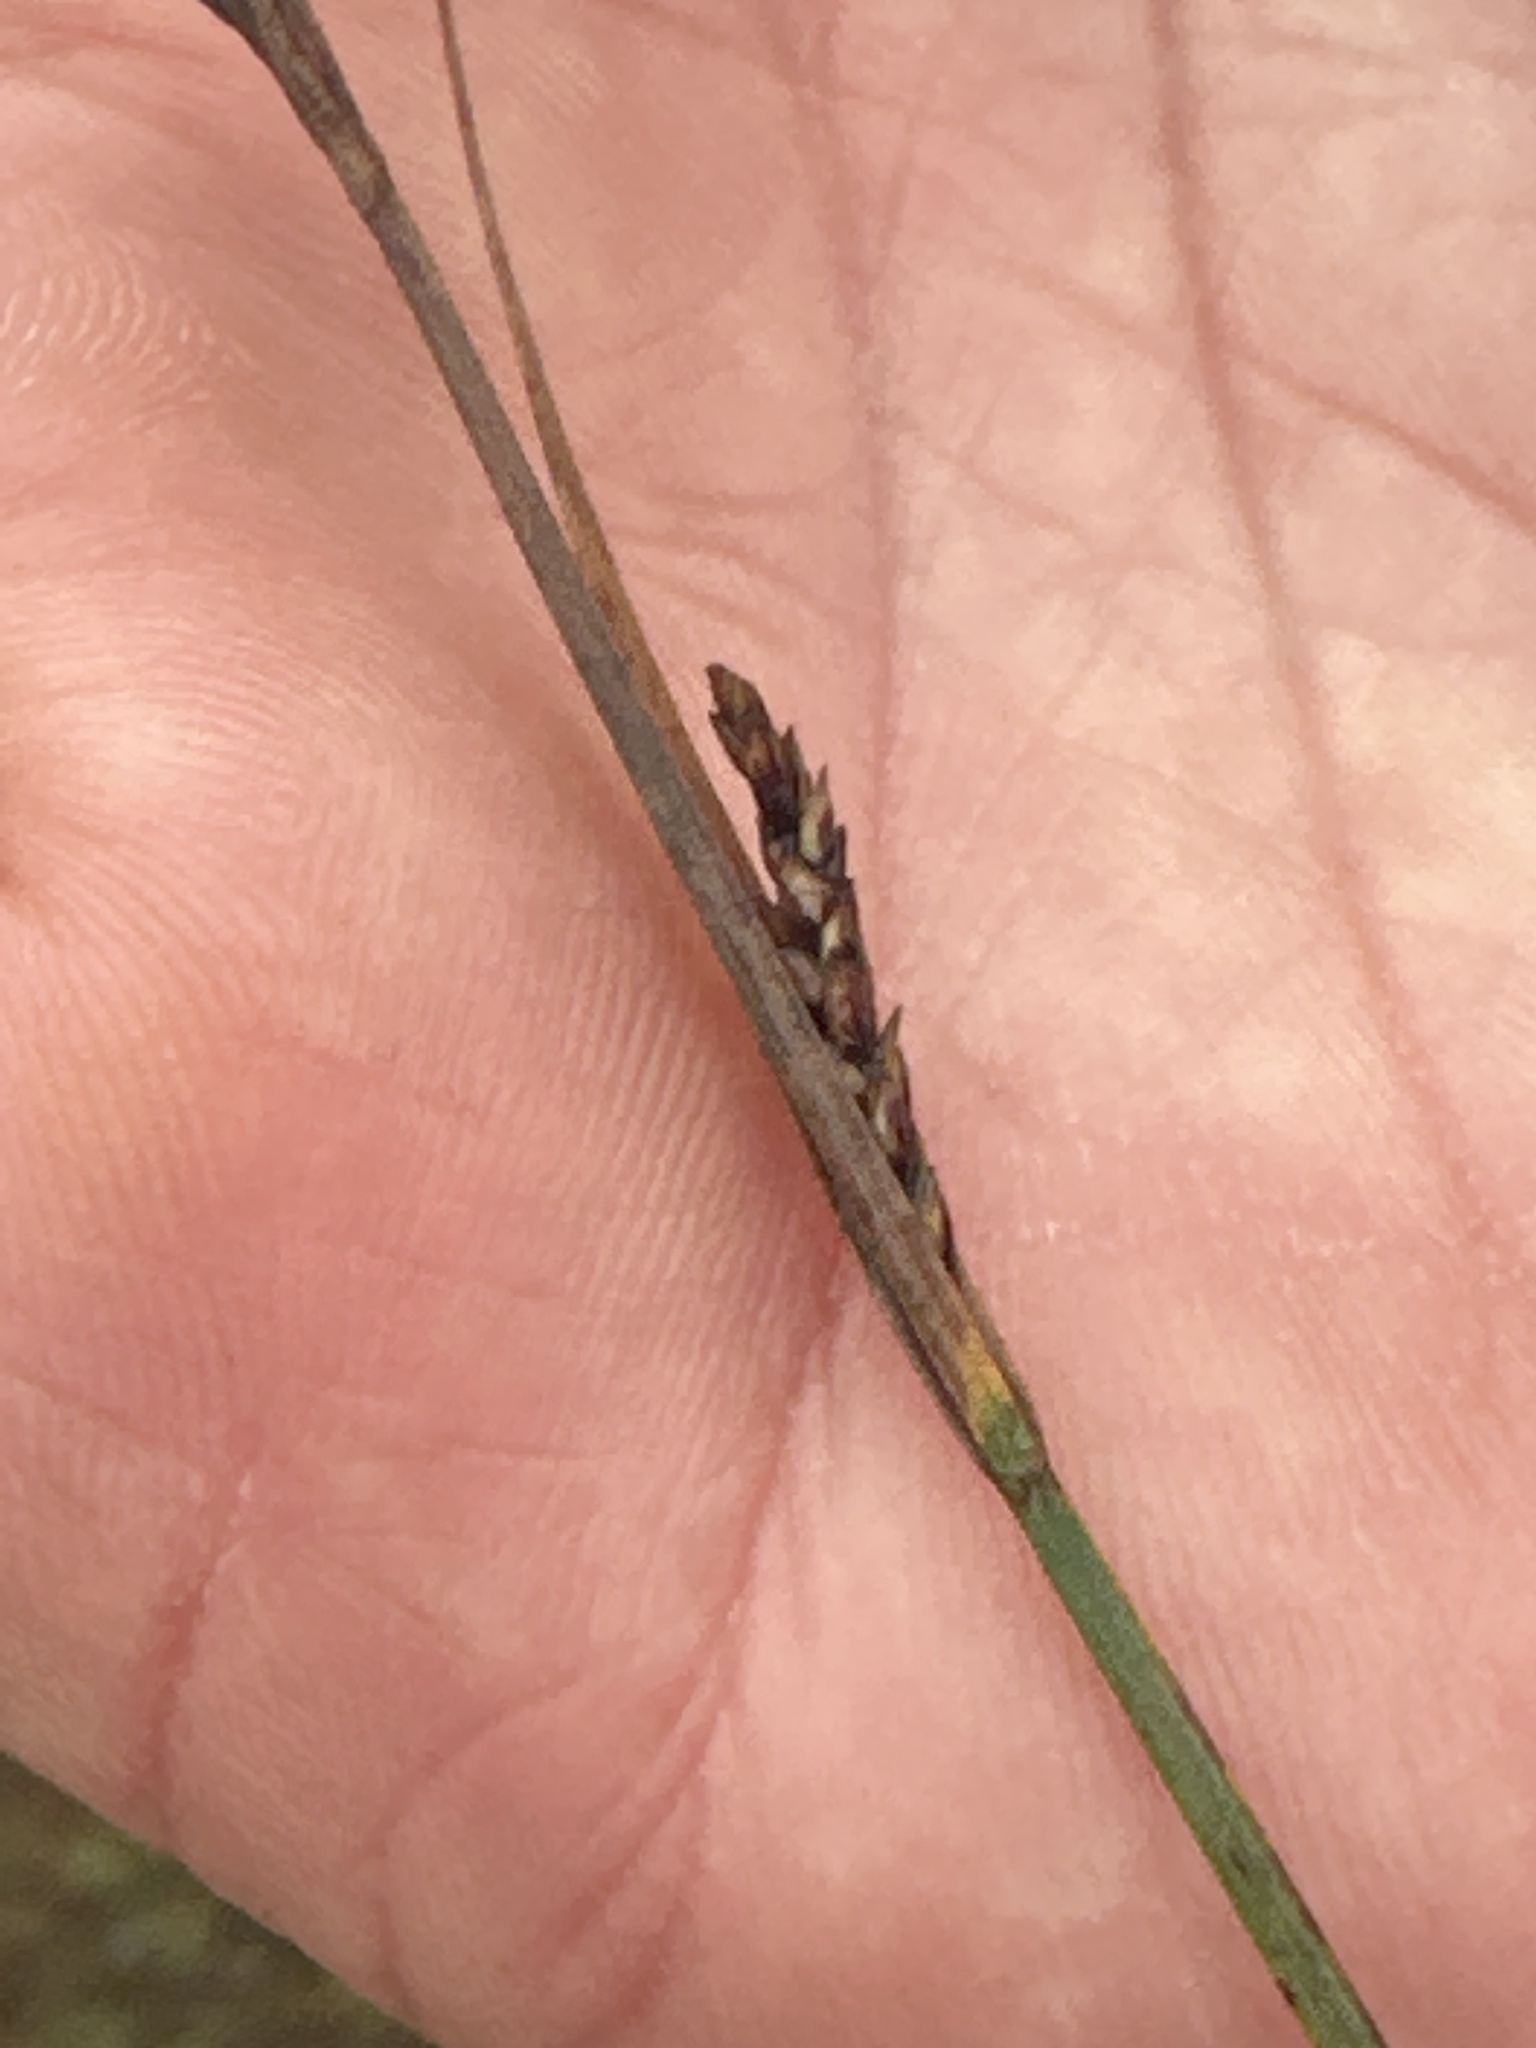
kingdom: Plantae
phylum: Tracheophyta
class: Liliopsida
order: Poales
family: Cyperaceae
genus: Carex
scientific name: Carex bigelowii
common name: Stiff sedge
